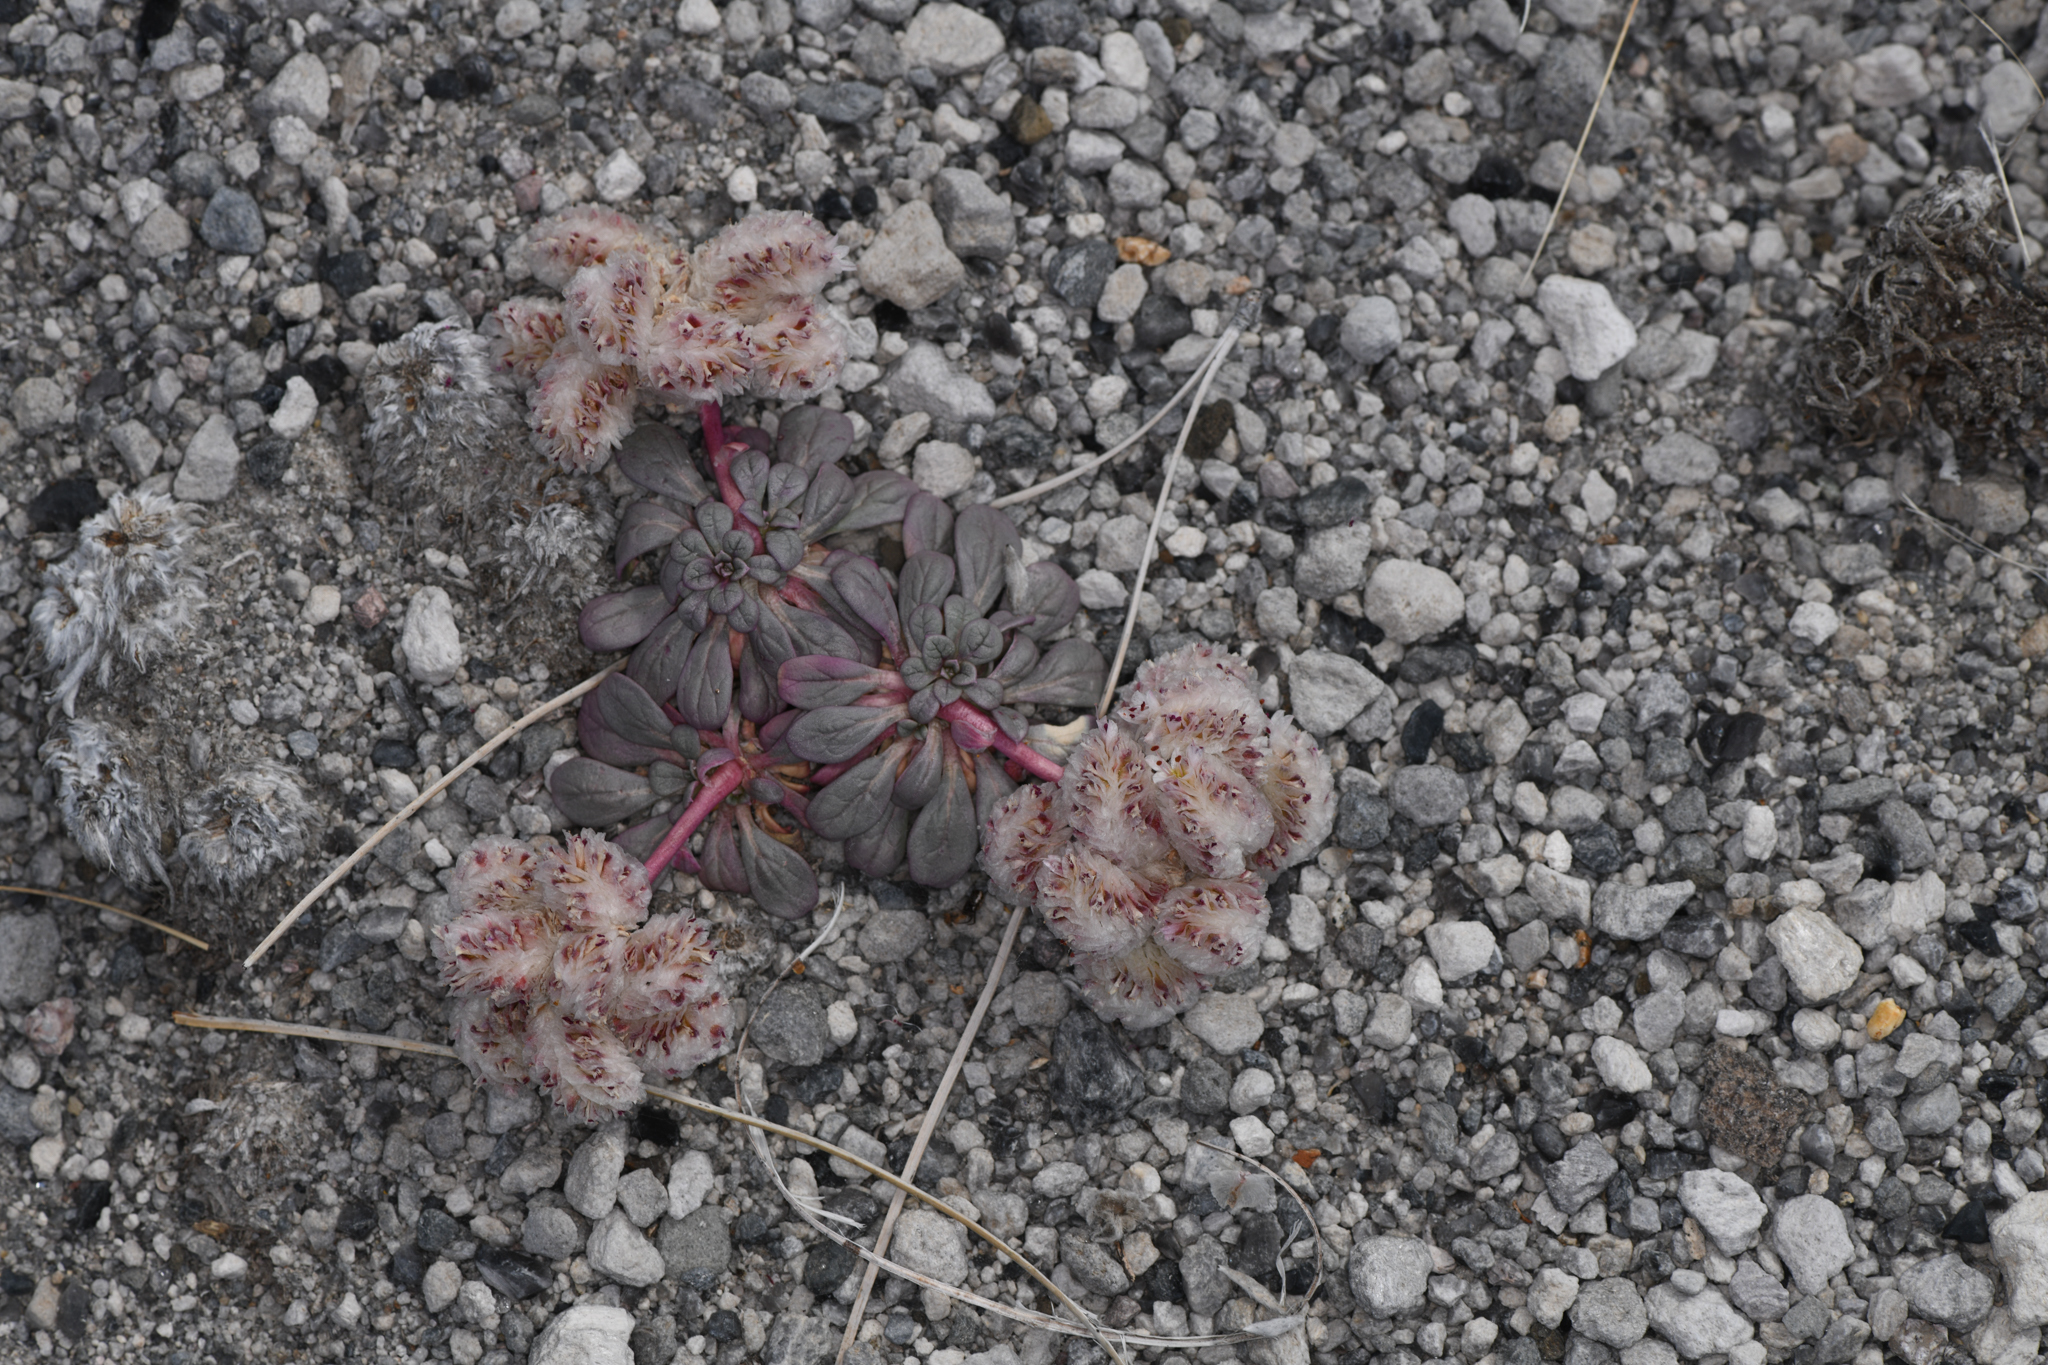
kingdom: Plantae
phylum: Tracheophyta
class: Magnoliopsida
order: Caryophyllales
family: Montiaceae
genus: Calyptridium
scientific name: Calyptridium umbellatum
